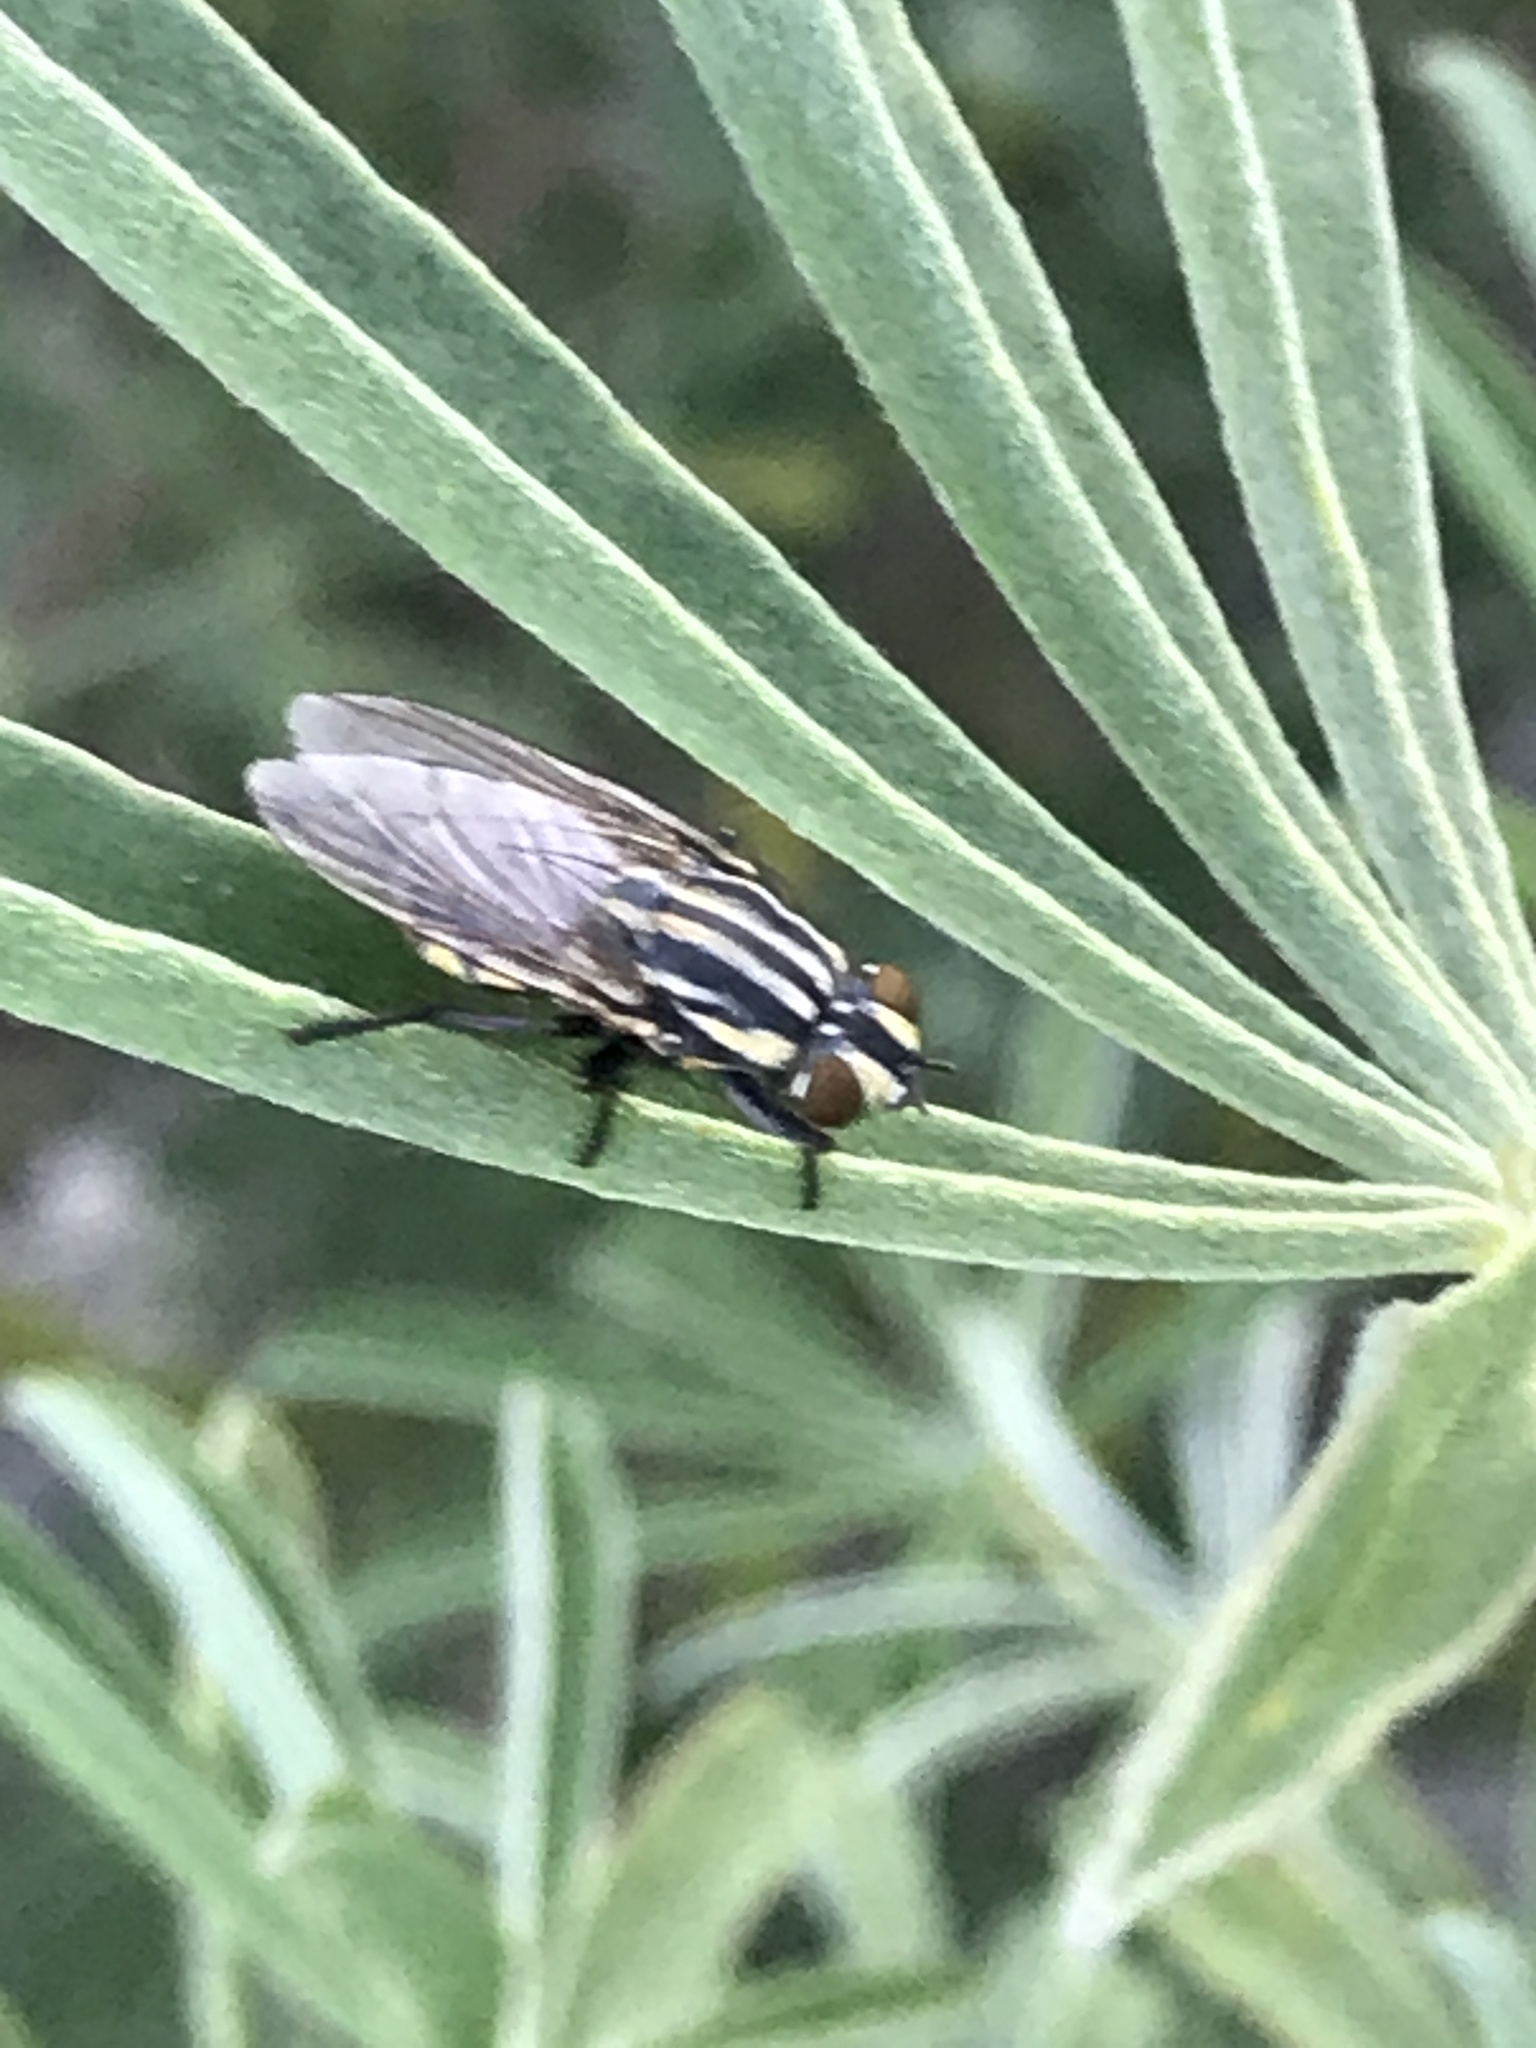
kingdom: Animalia
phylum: Arthropoda
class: Insecta
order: Diptera
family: Sarcophagidae
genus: Oxysarcodexia
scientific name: Oxysarcodexia varia
